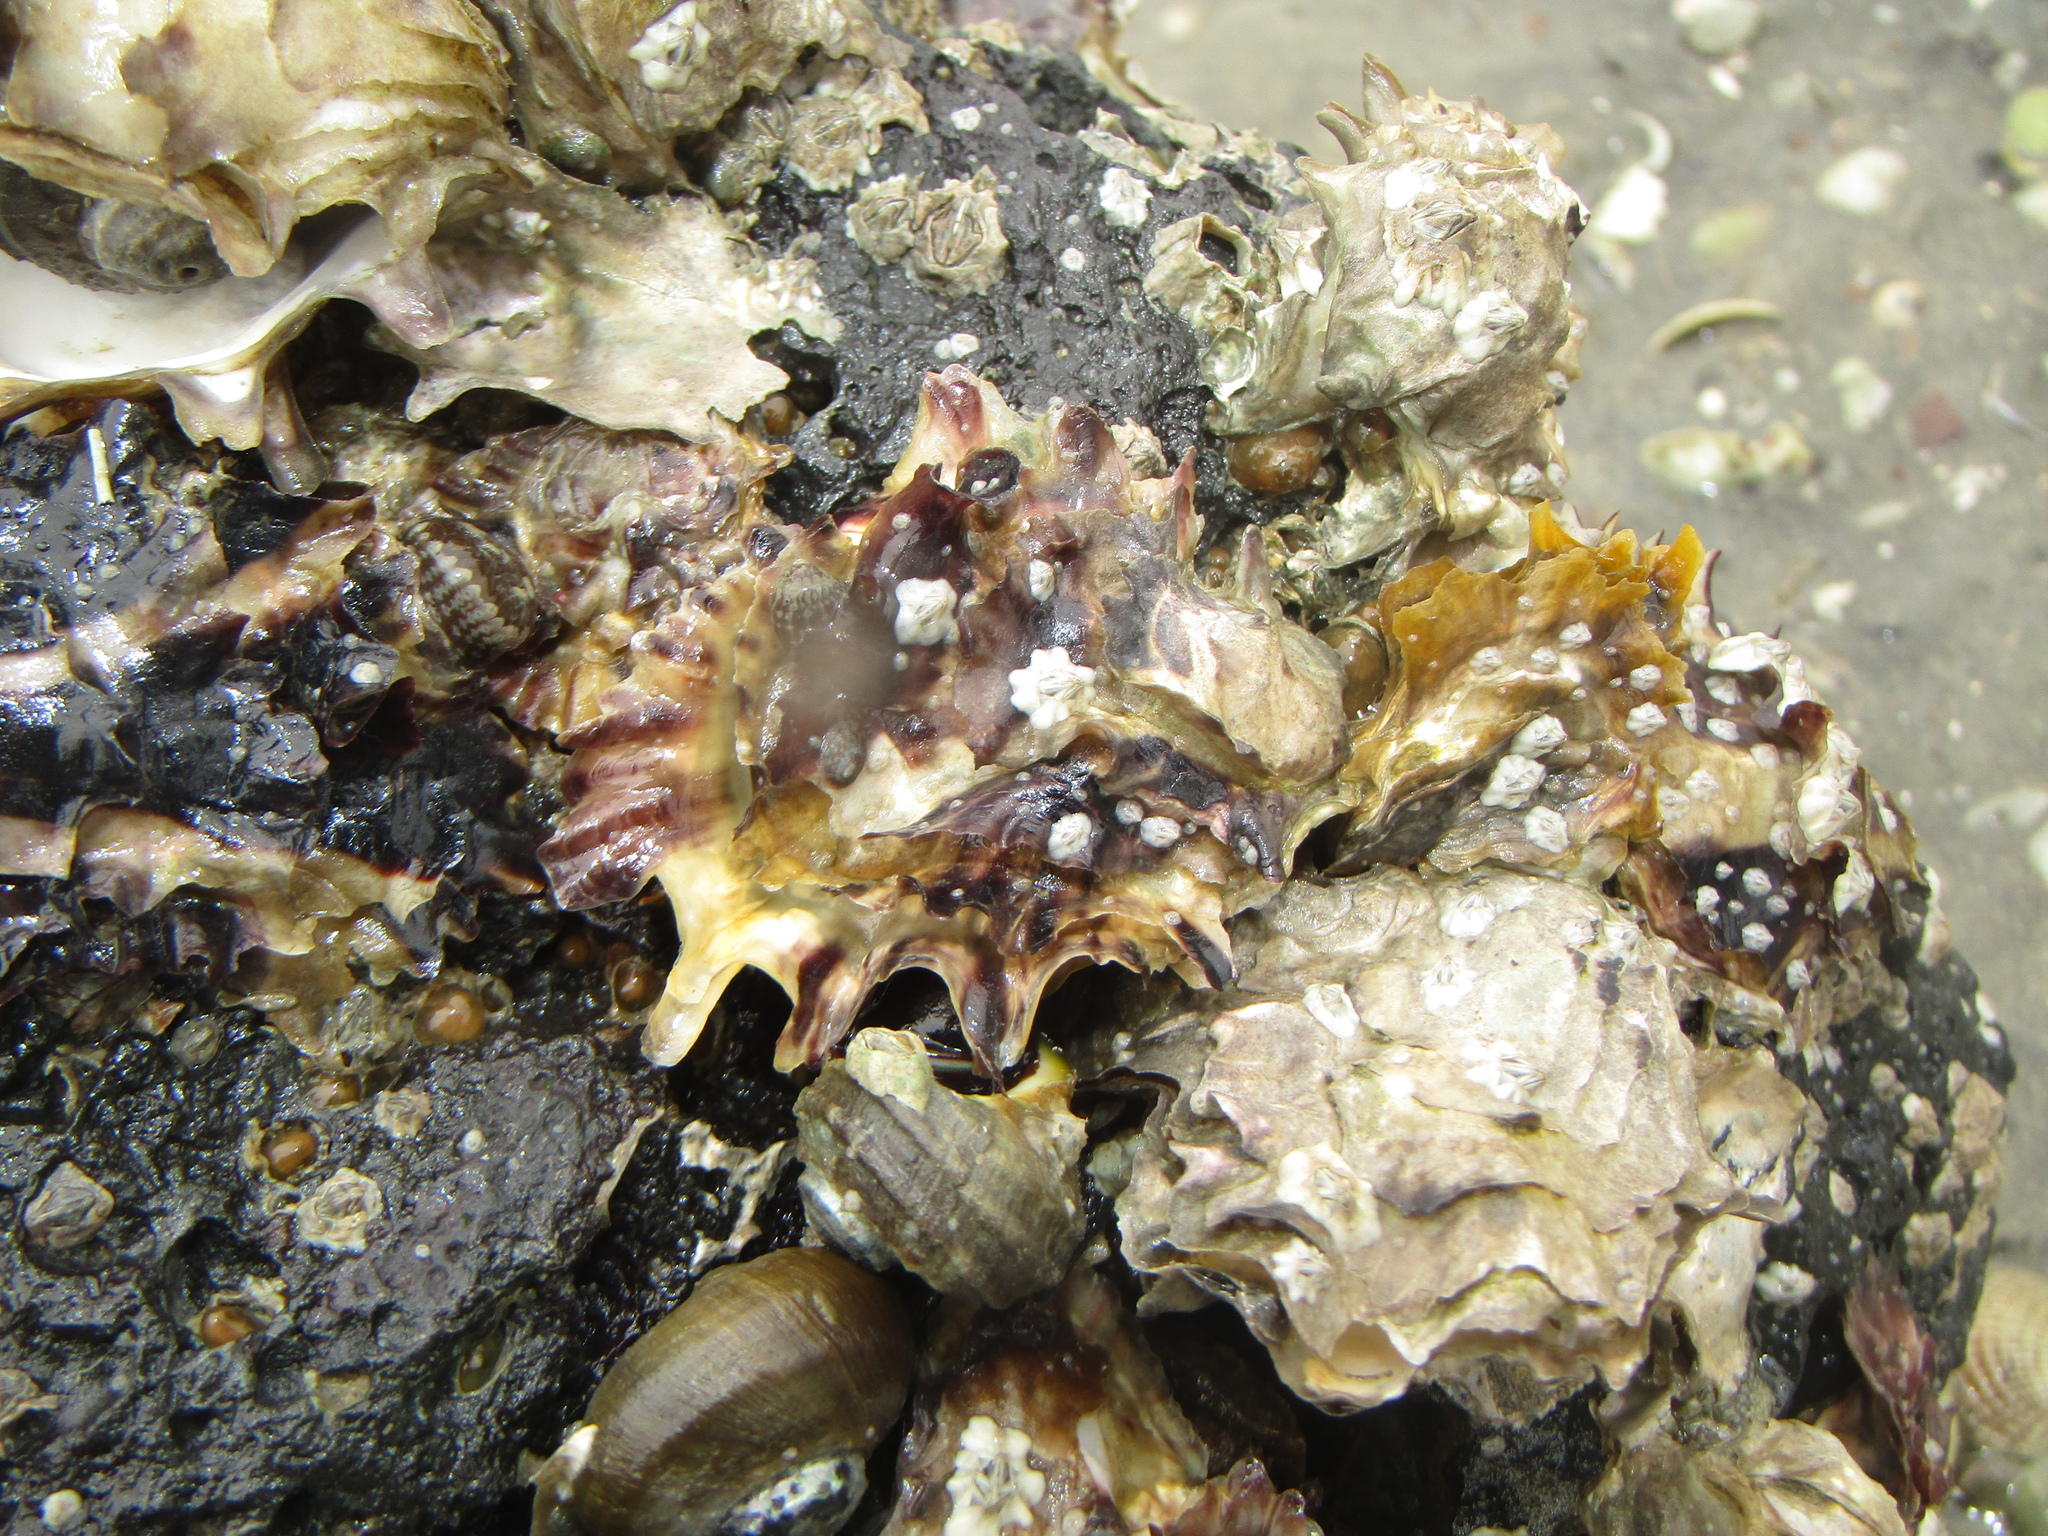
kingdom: Animalia
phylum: Mollusca
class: Bivalvia
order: Ostreida
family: Ostreidae
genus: Magallana
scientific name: Magallana gigas
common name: Pacific oyster
